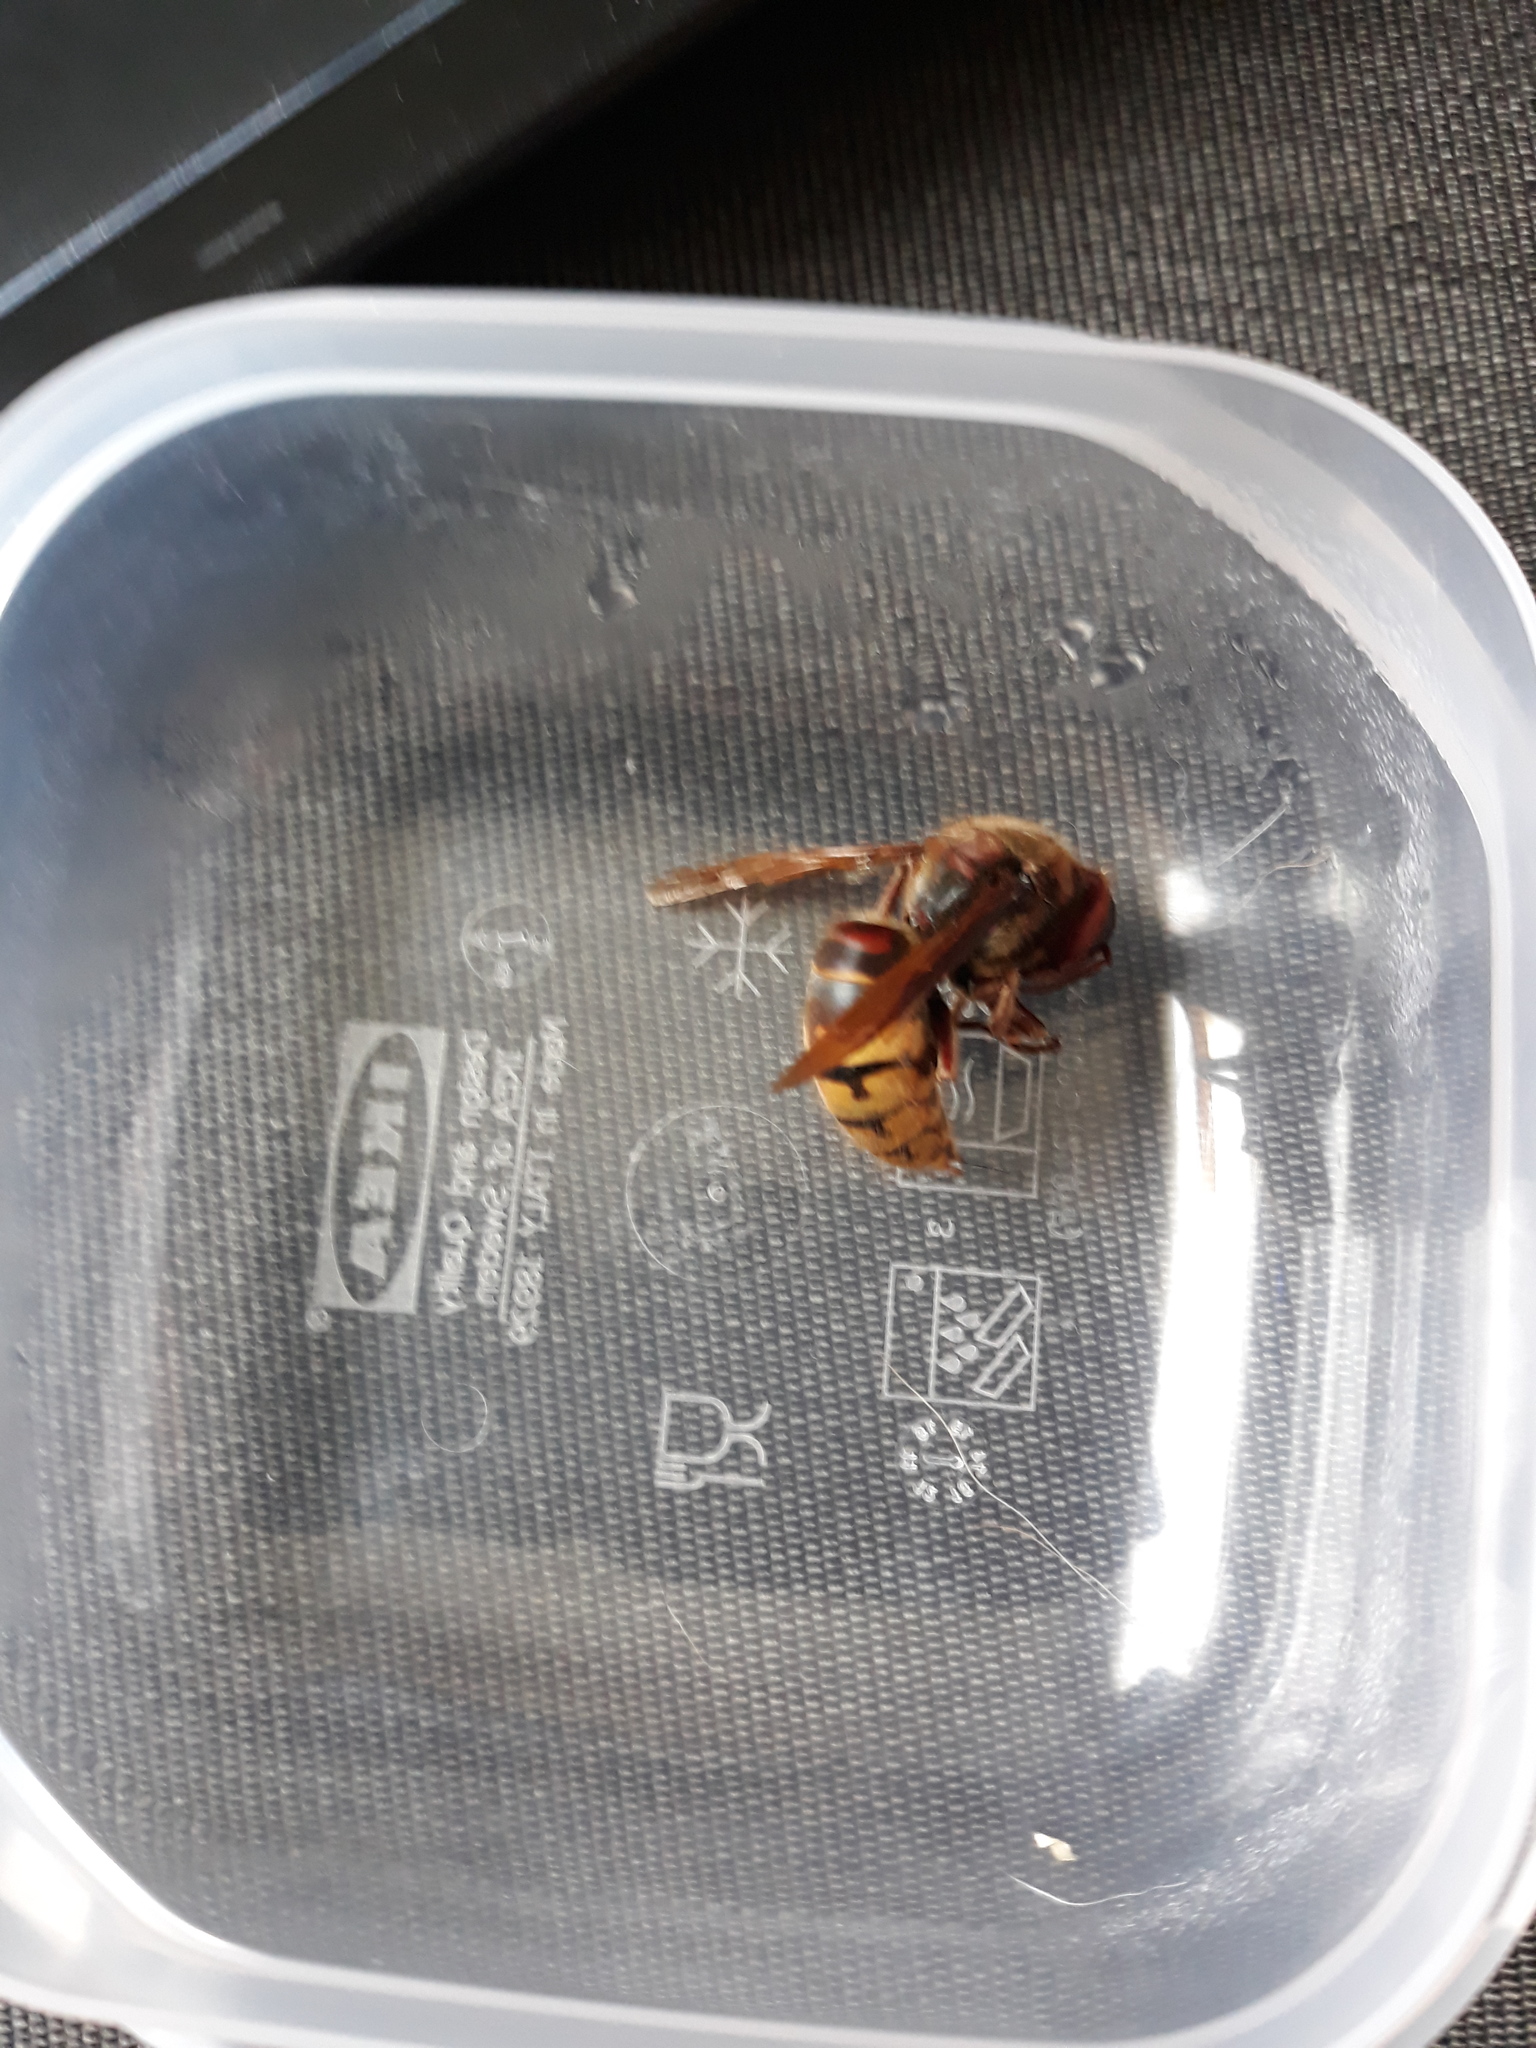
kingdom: Animalia
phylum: Arthropoda
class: Insecta
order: Hymenoptera
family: Vespidae
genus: Vespa
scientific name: Vespa crabro
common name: Hornet
